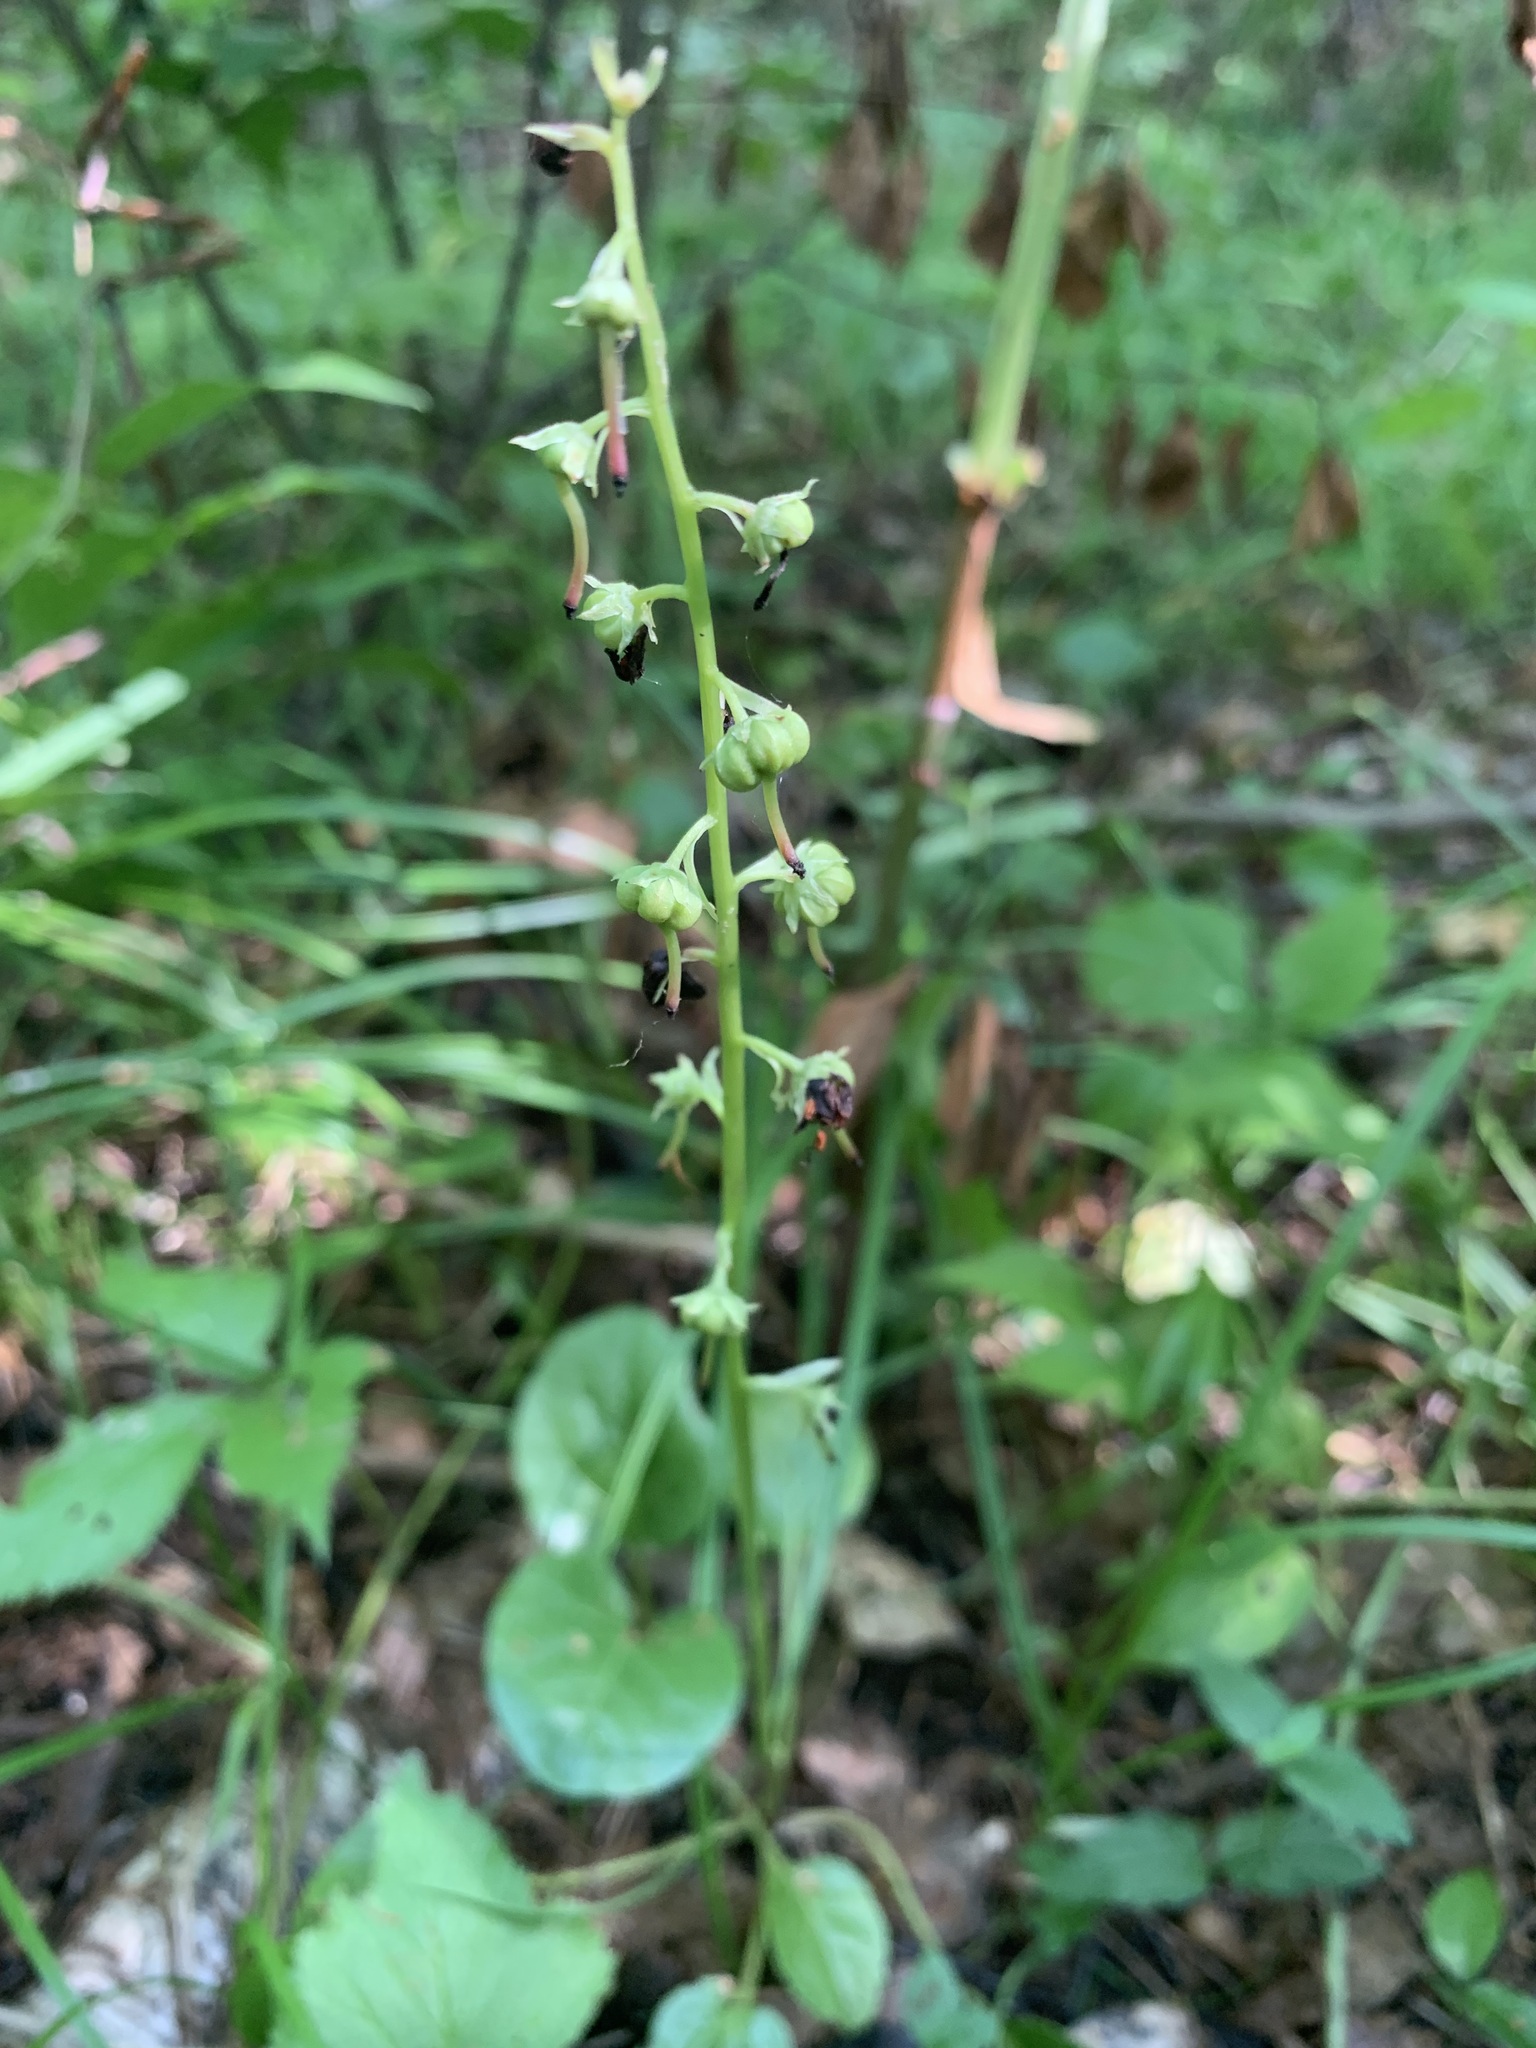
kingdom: Plantae
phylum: Tracheophyta
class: Magnoliopsida
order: Ericales
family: Ericaceae
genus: Pyrola
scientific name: Pyrola rotundifolia
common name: Round-leaved wintergreen
